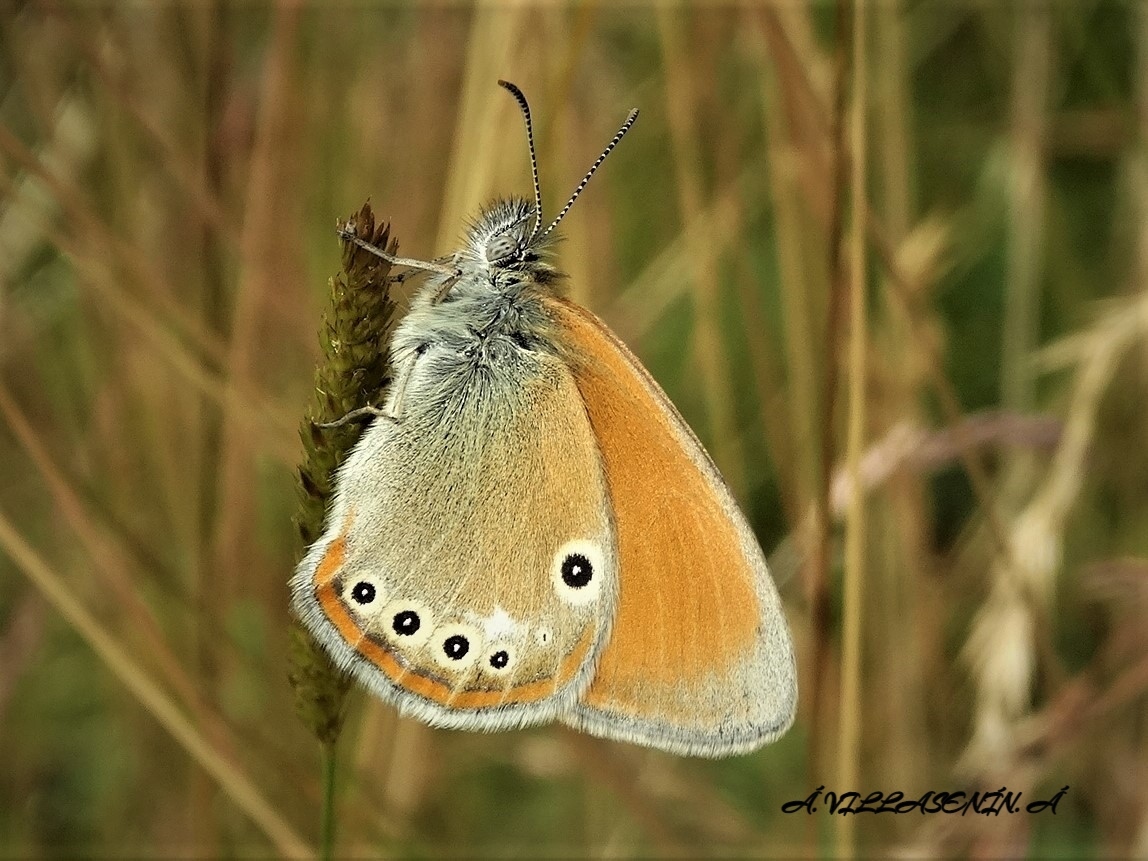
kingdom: Animalia
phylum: Arthropoda
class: Insecta
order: Lepidoptera
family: Nymphalidae
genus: Coenonympha
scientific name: Coenonympha iphis
